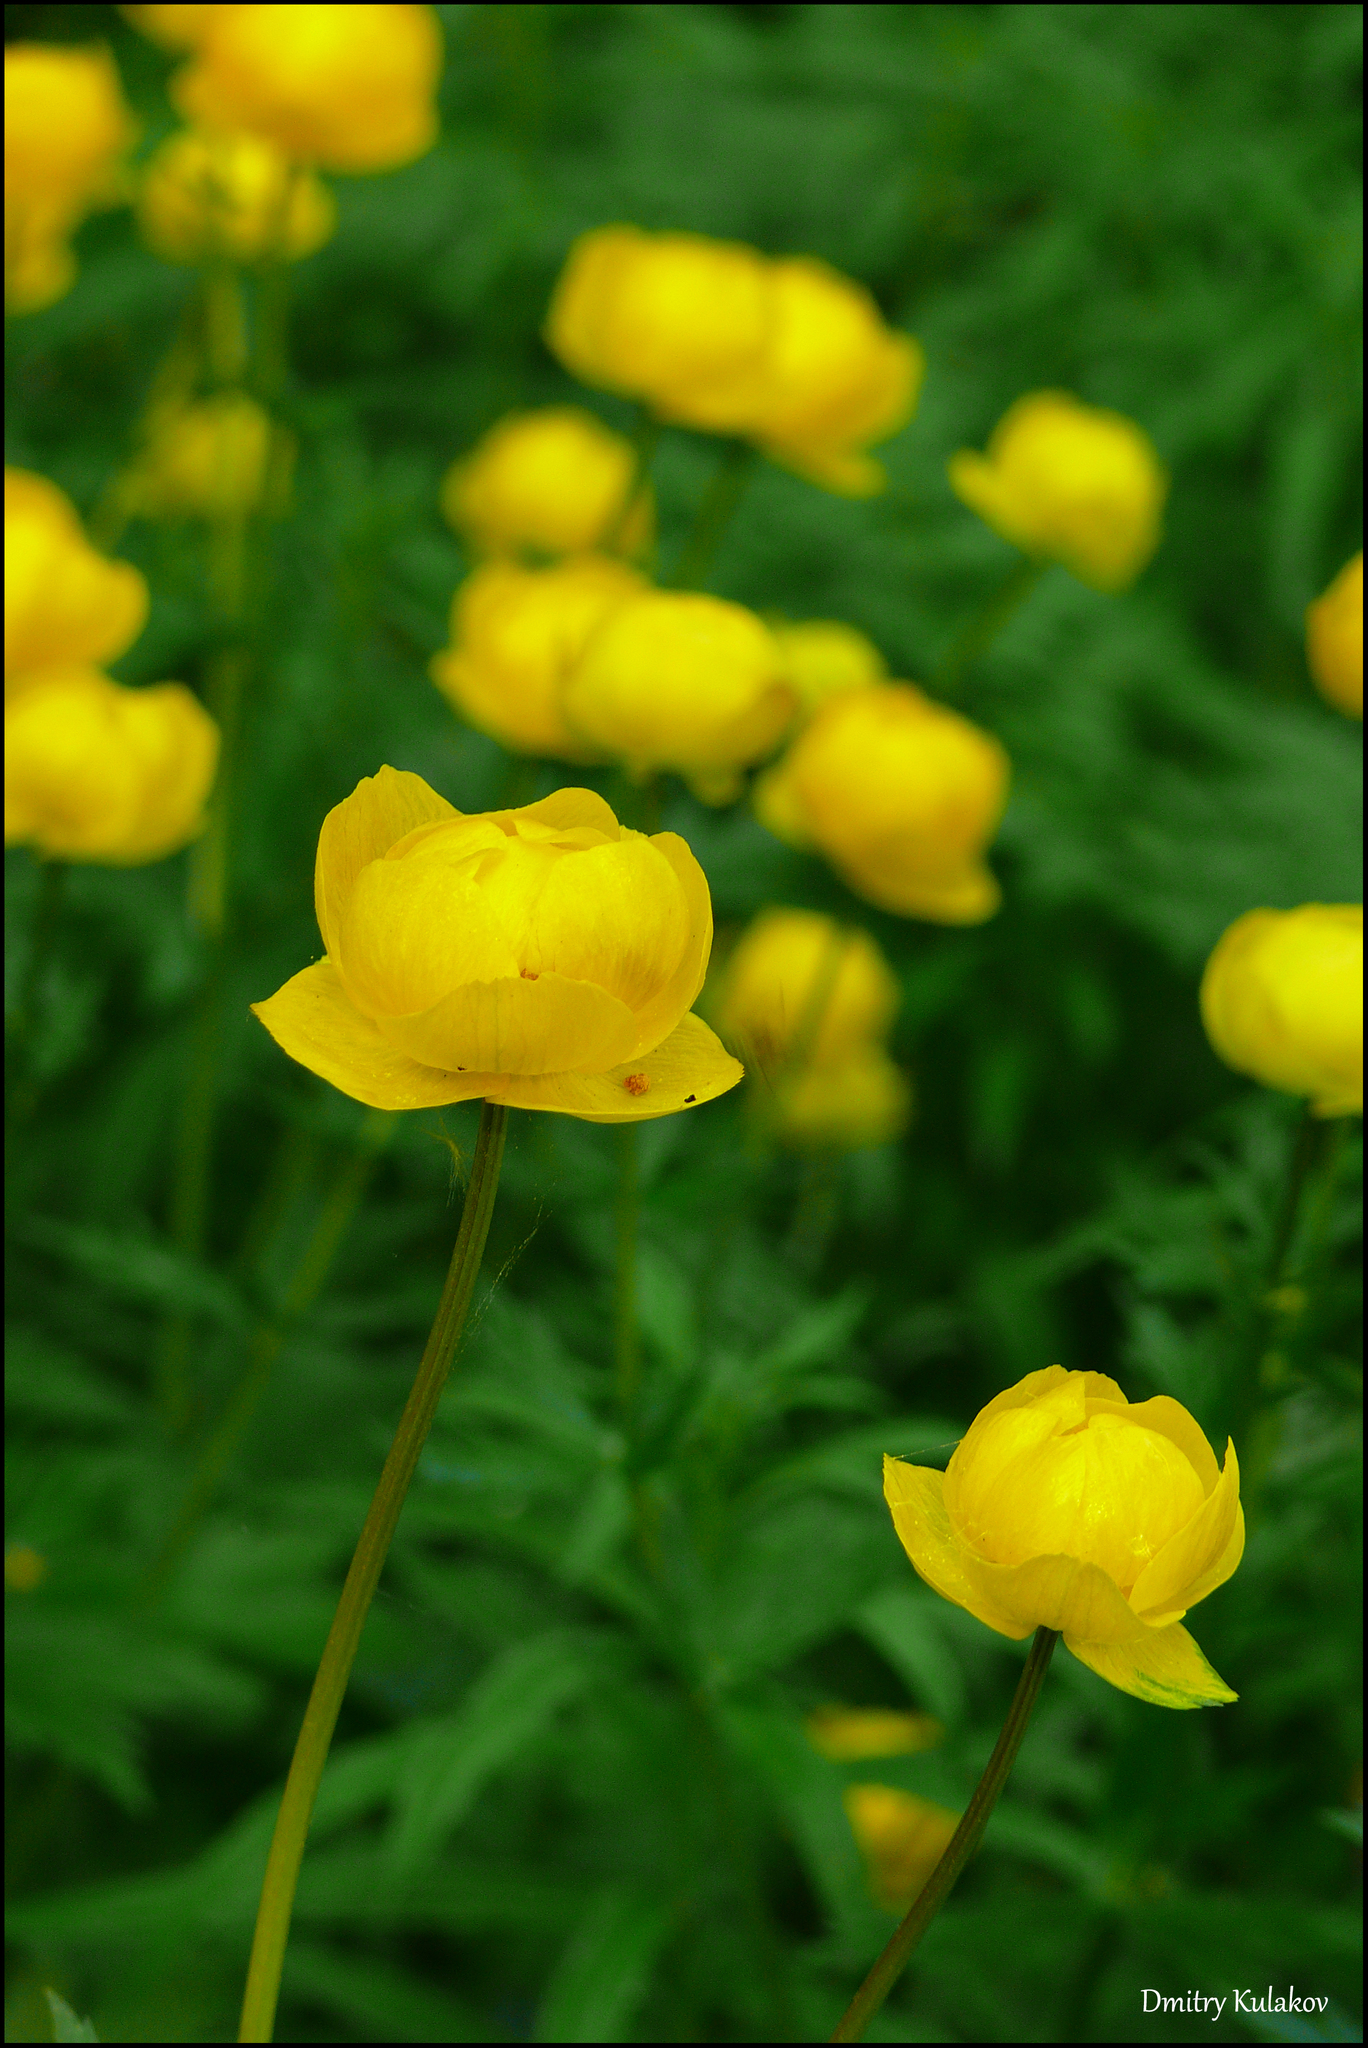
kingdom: Plantae
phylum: Tracheophyta
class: Magnoliopsida
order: Ranunculales
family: Ranunculaceae
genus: Trollius
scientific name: Trollius europaeus
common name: European globeflower
